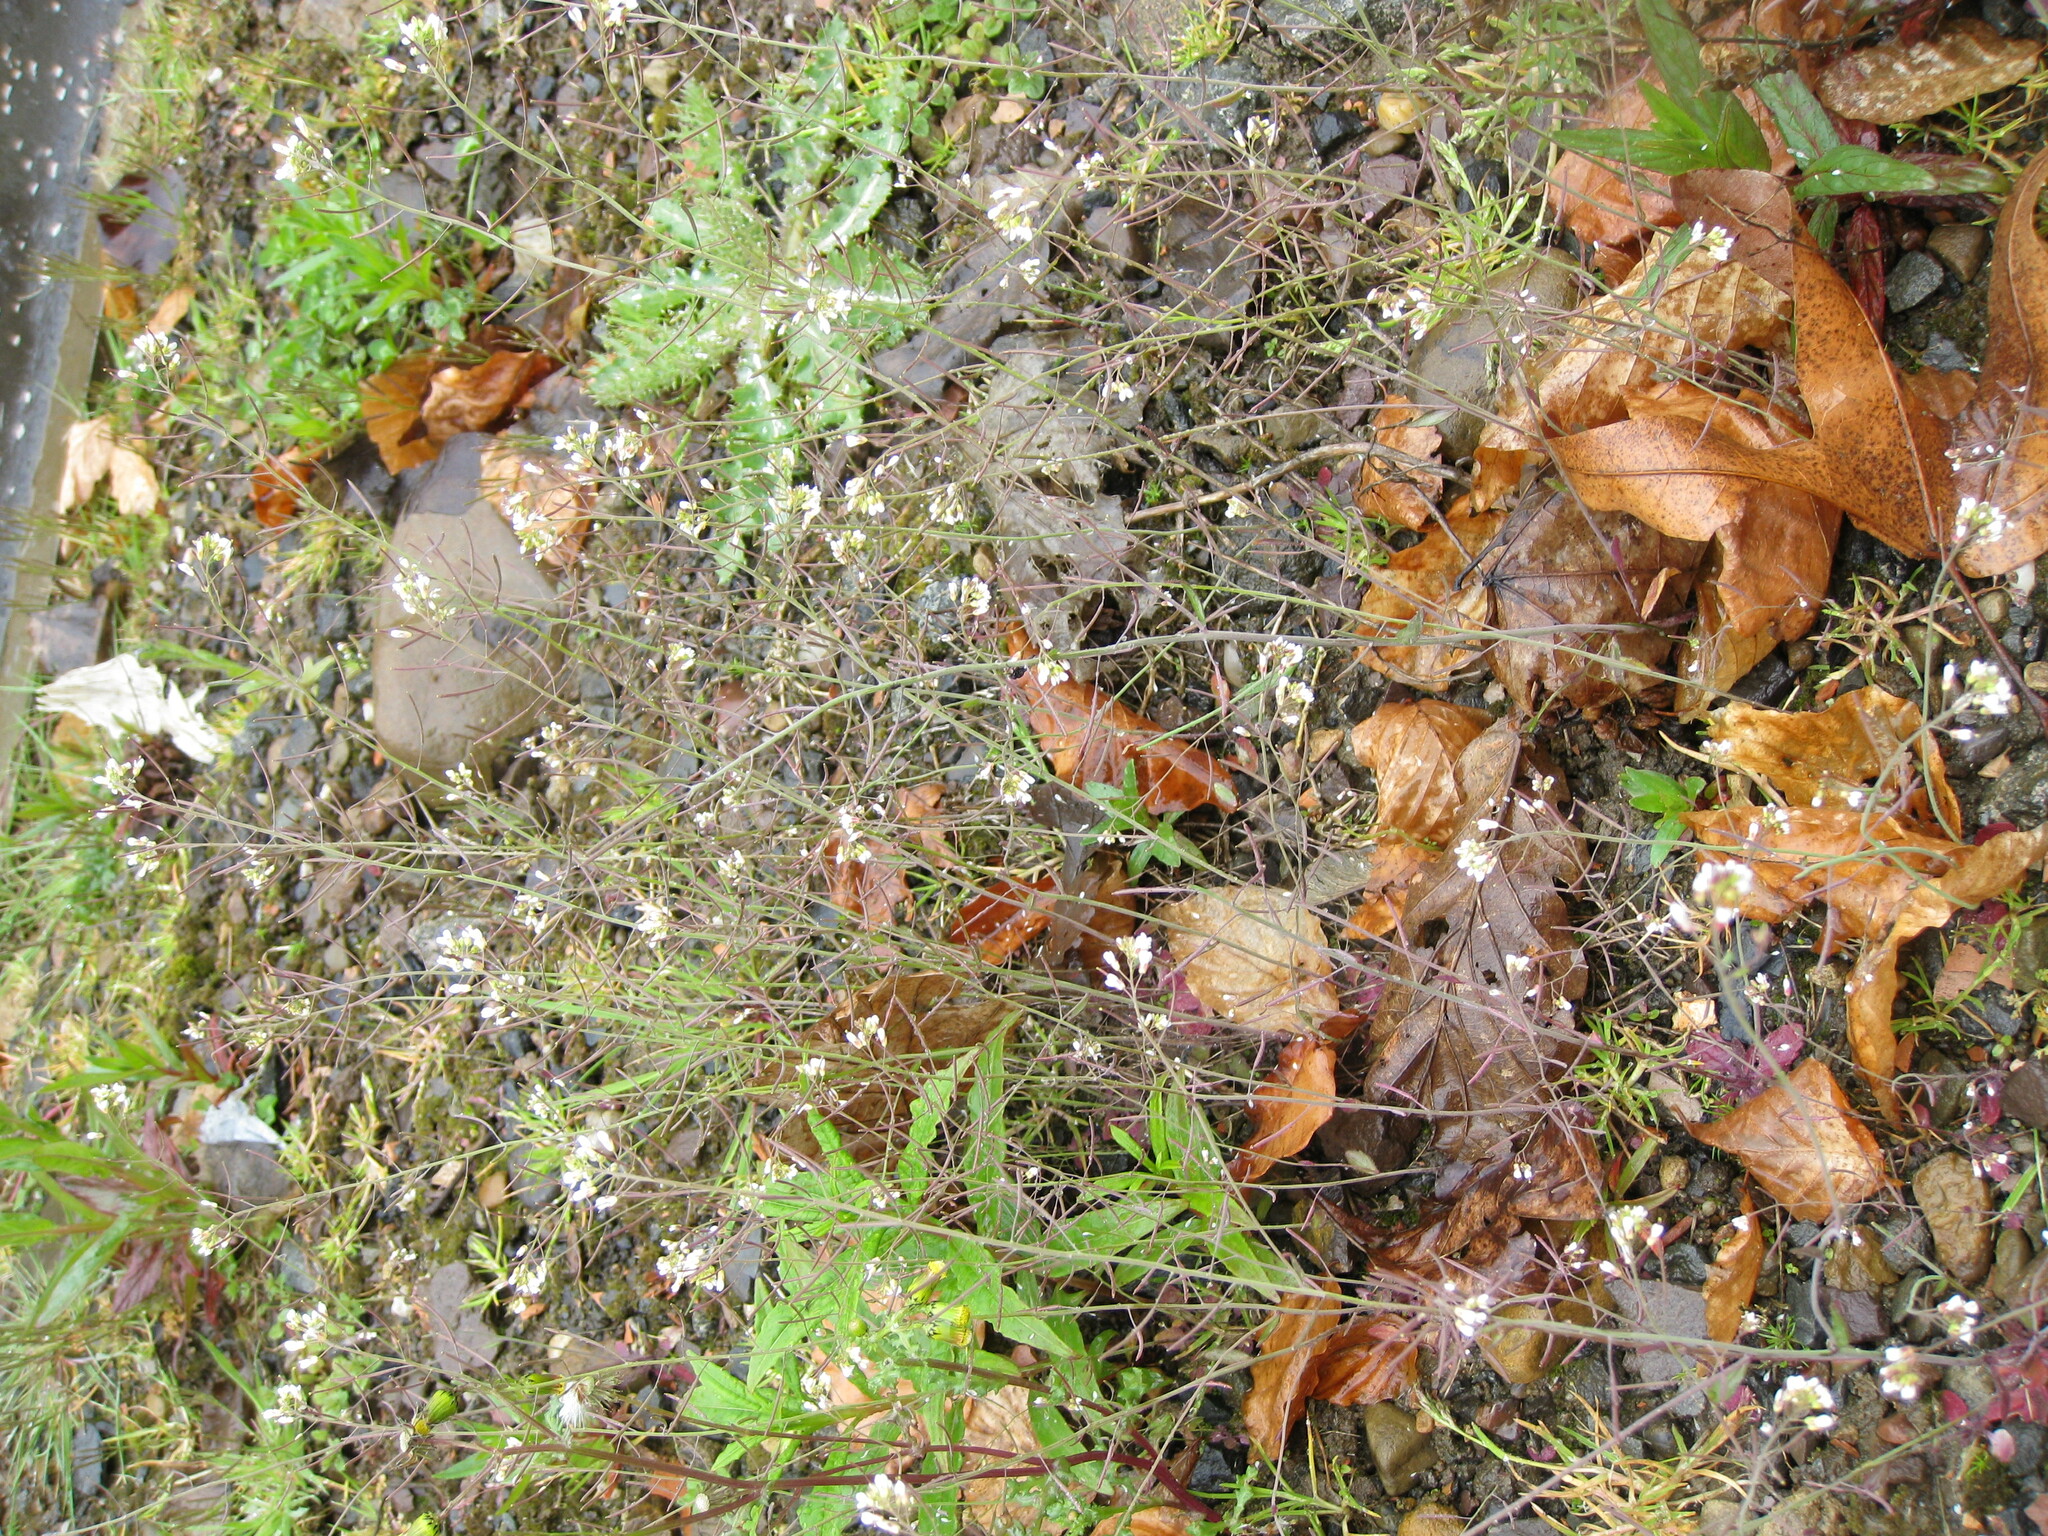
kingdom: Plantae
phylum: Tracheophyta
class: Magnoliopsida
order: Brassicales
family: Brassicaceae
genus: Arabidopsis
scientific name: Arabidopsis thaliana
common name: Thale cress
